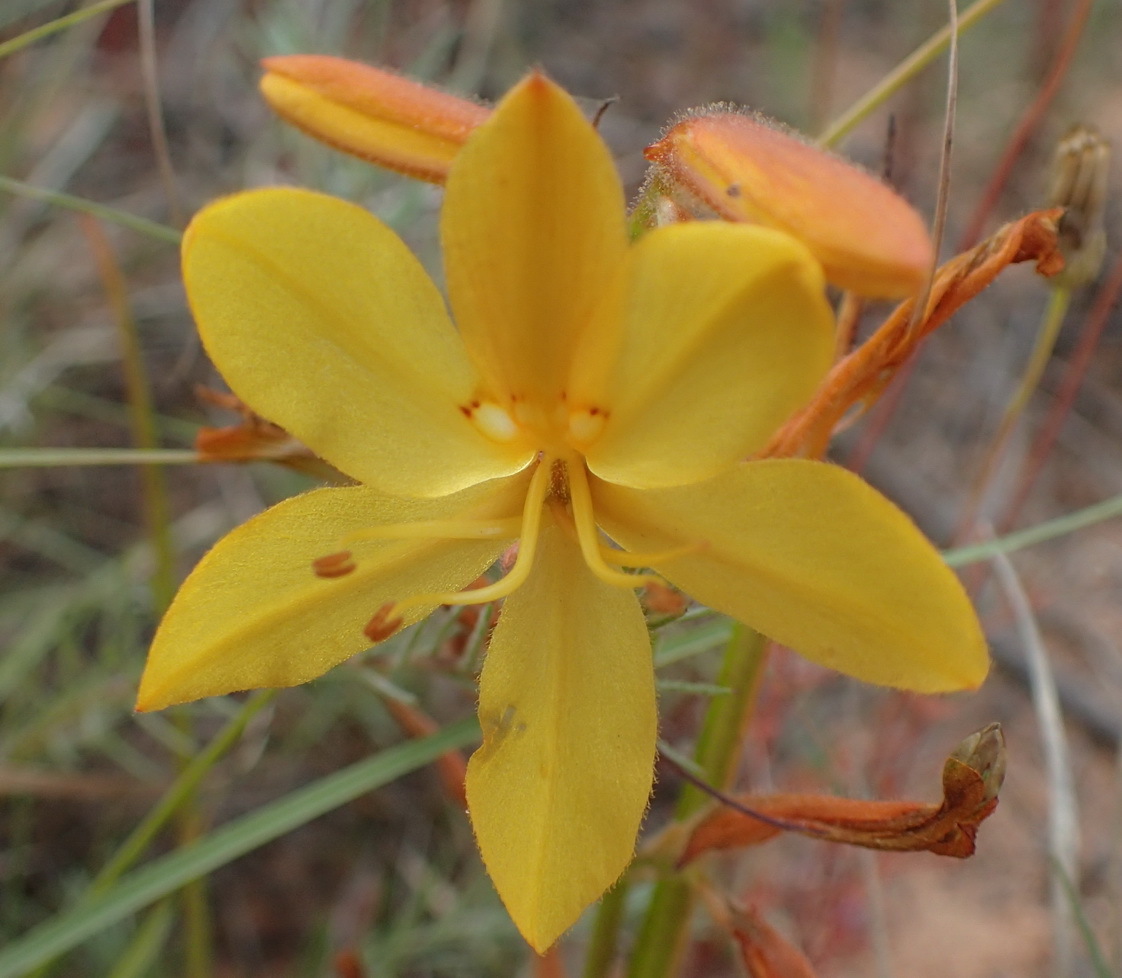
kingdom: Plantae
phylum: Tracheophyta
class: Liliopsida
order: Commelinales
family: Haemodoraceae
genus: Wachendorfia
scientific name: Wachendorfia paniculata
